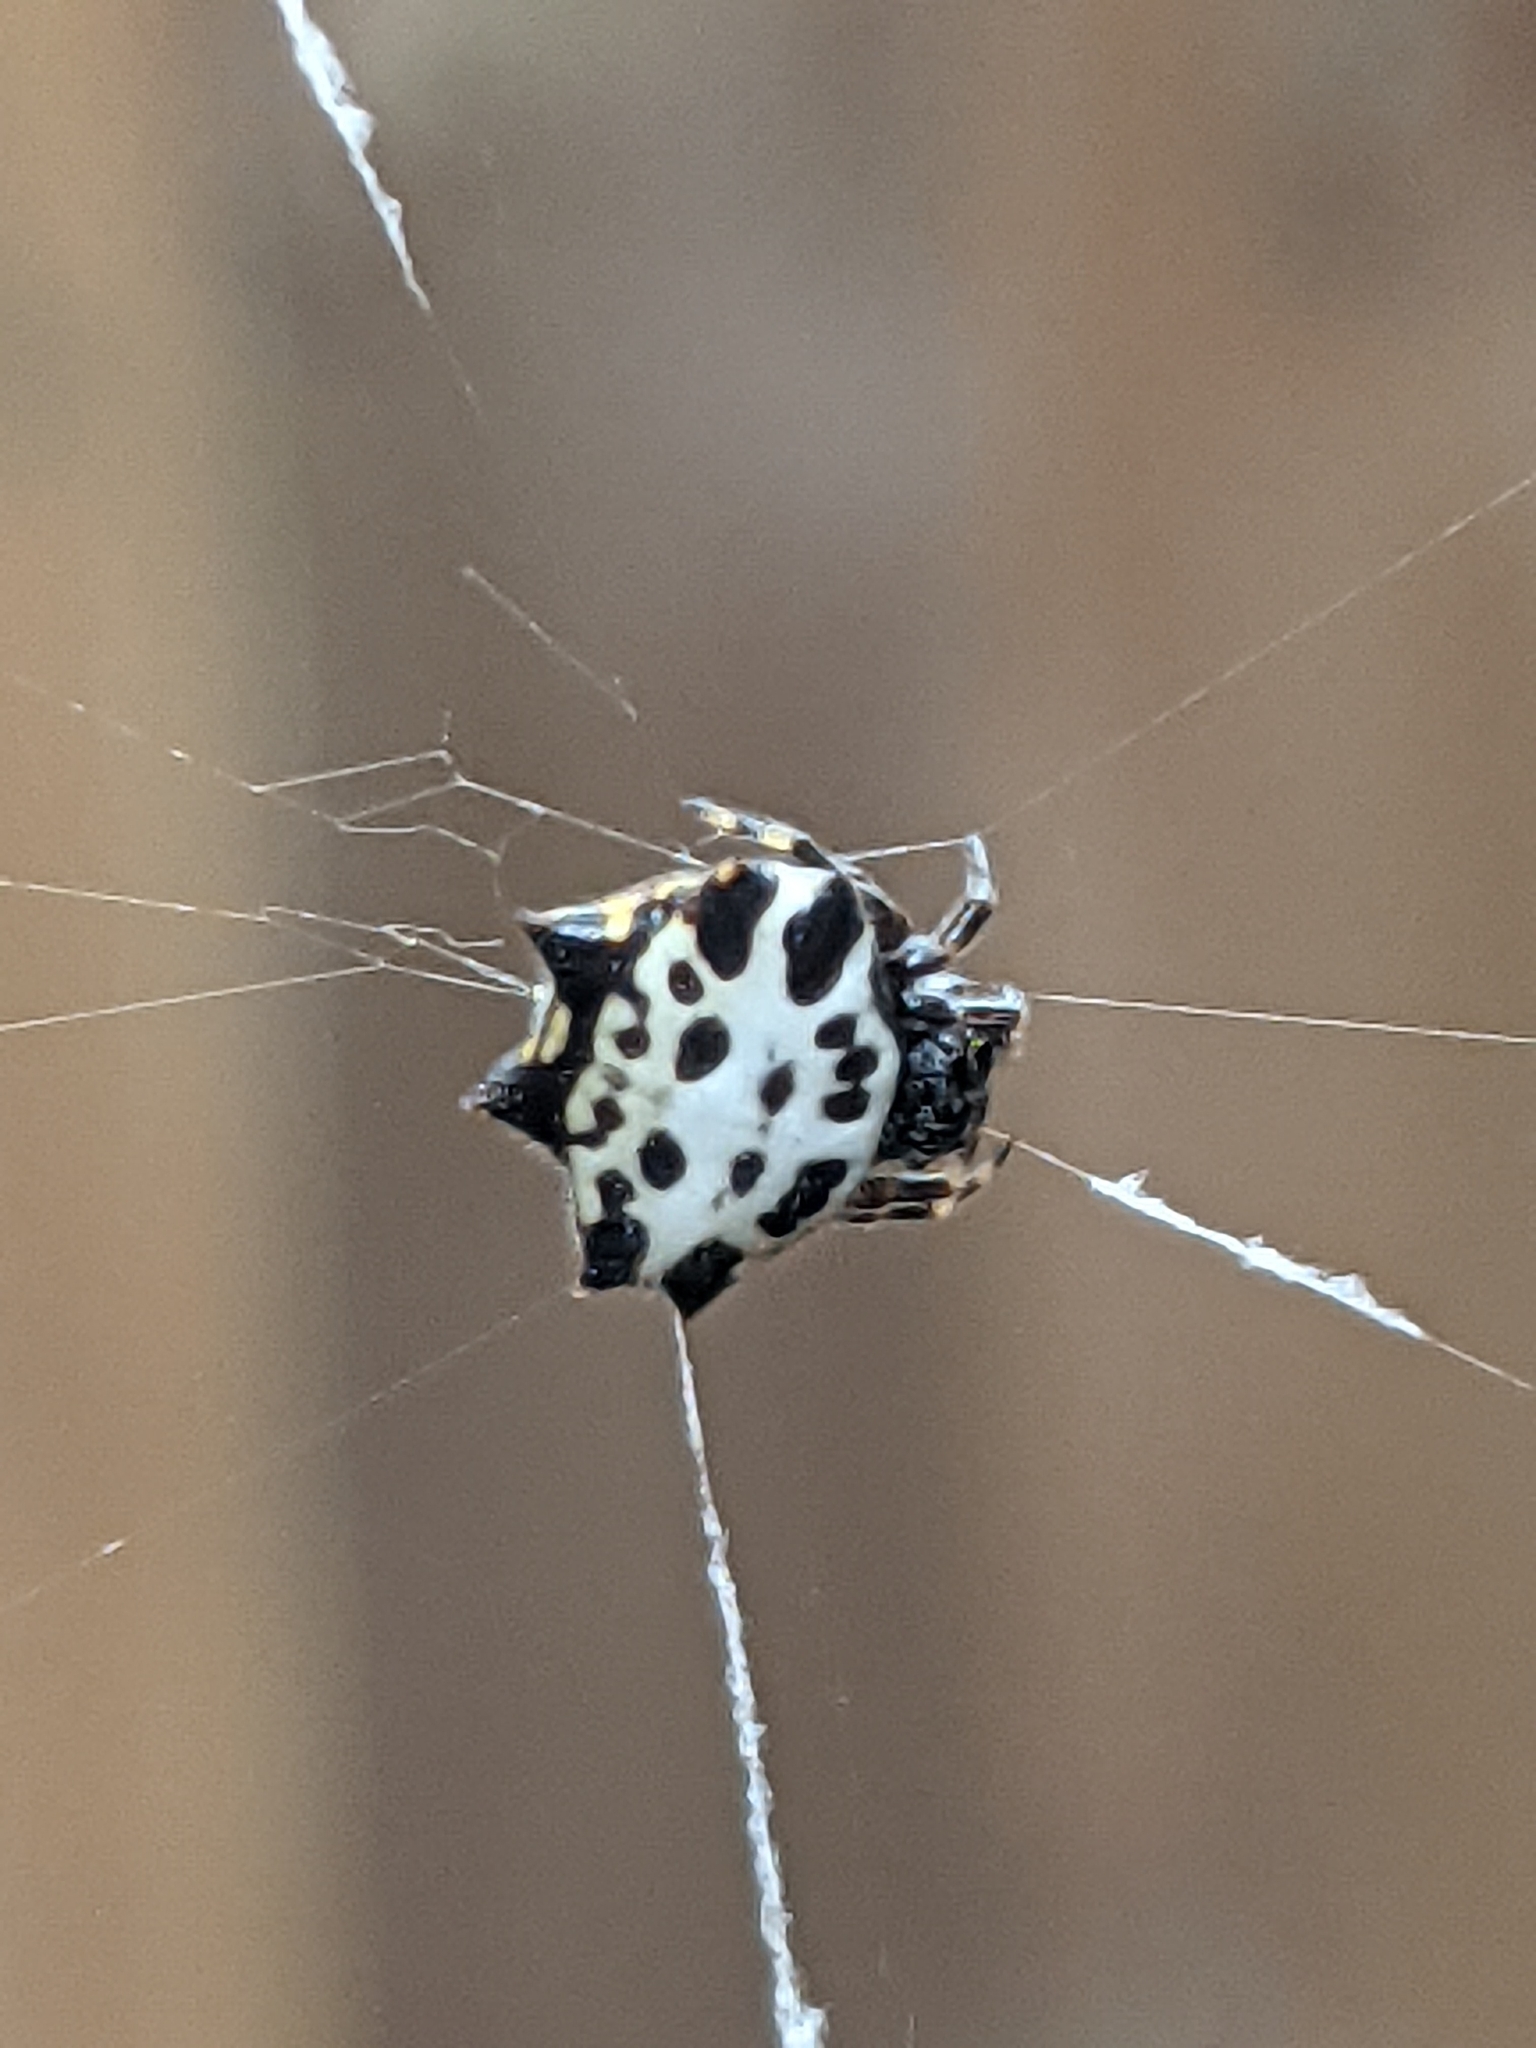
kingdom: Animalia
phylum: Arthropoda
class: Arachnida
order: Araneae
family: Araneidae
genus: Gasteracantha
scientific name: Gasteracantha cancriformis
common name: Orb weavers
